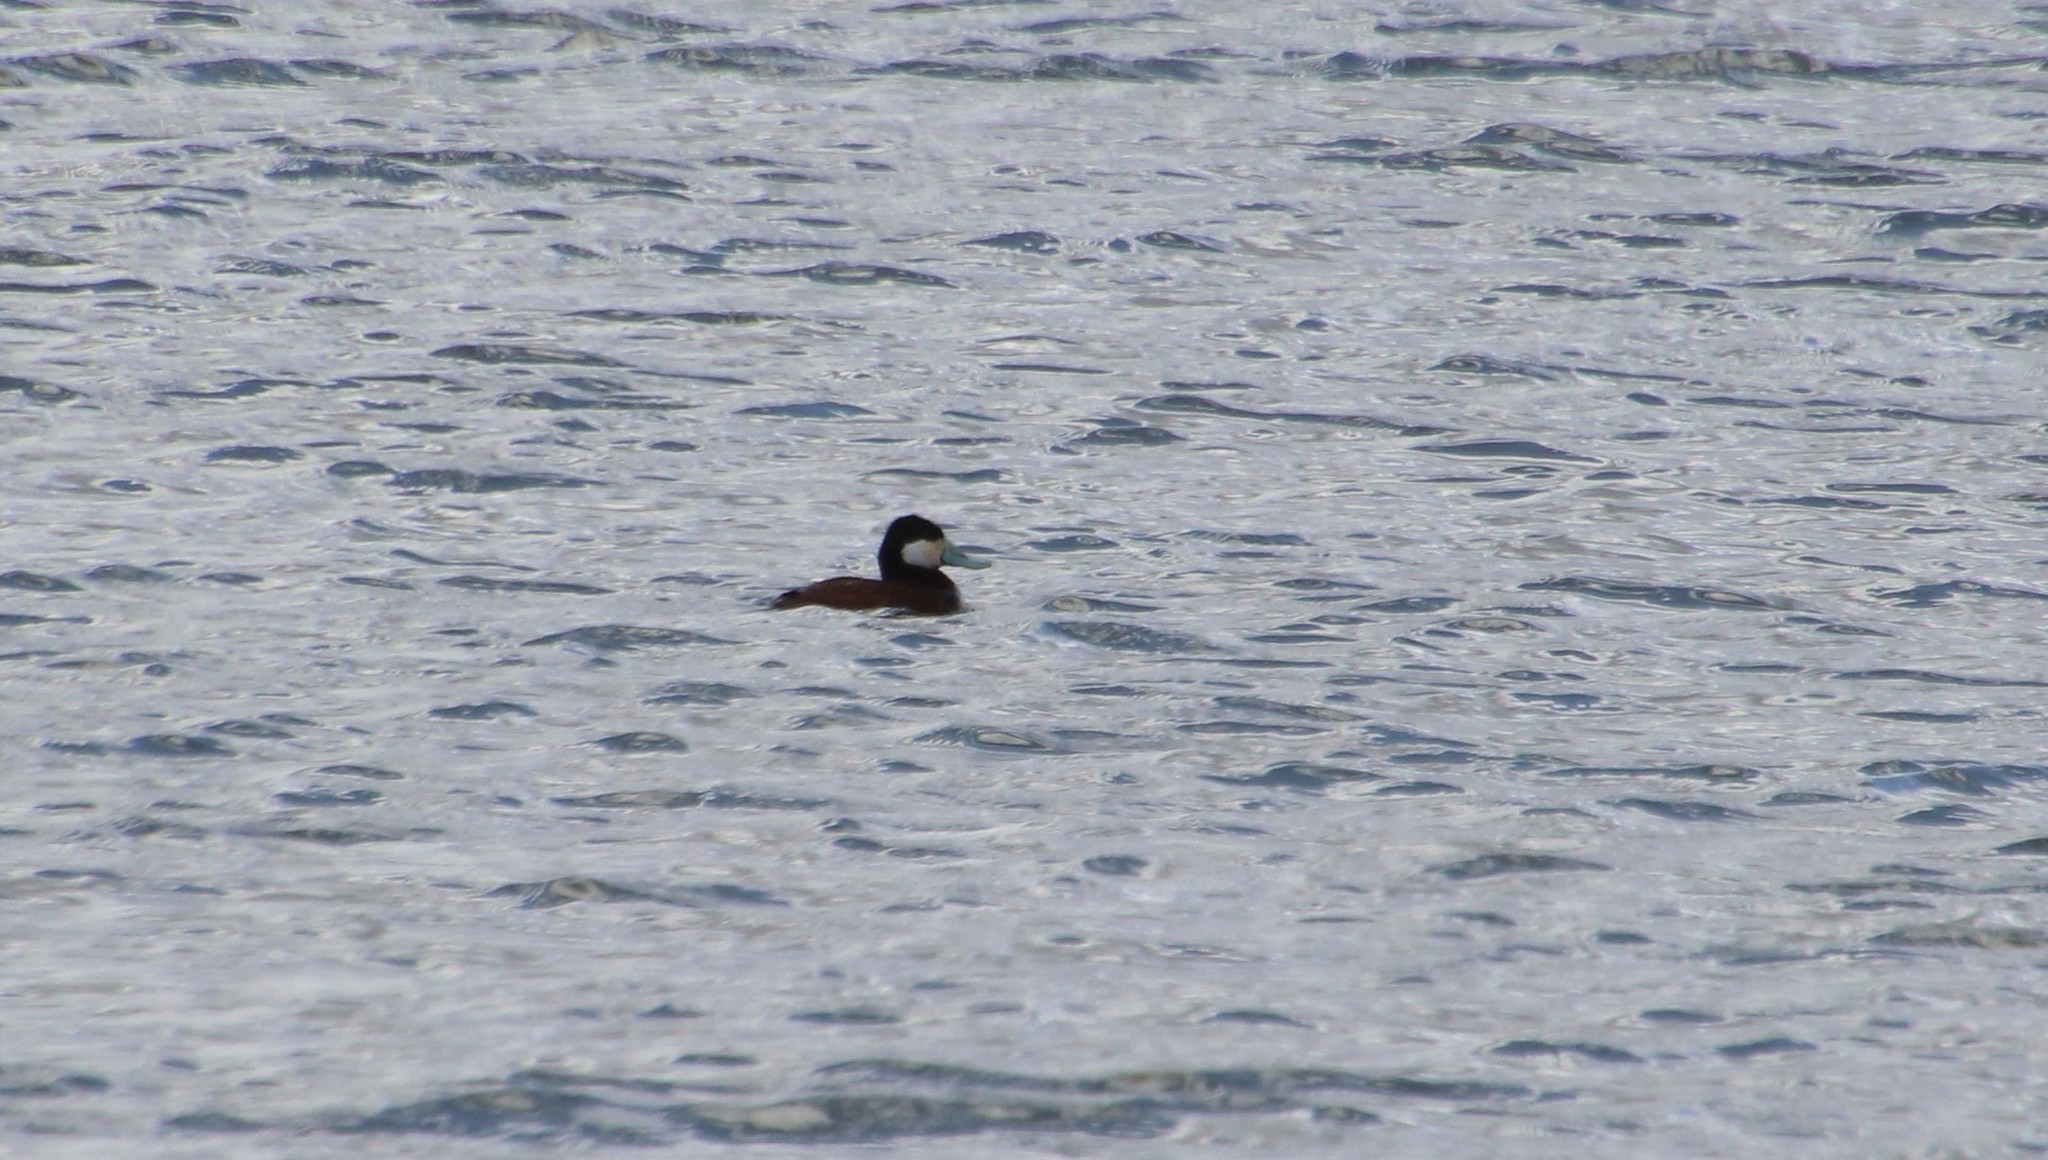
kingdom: Animalia
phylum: Chordata
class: Aves
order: Anseriformes
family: Anatidae
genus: Oxyura
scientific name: Oxyura jamaicensis
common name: Ruddy duck
